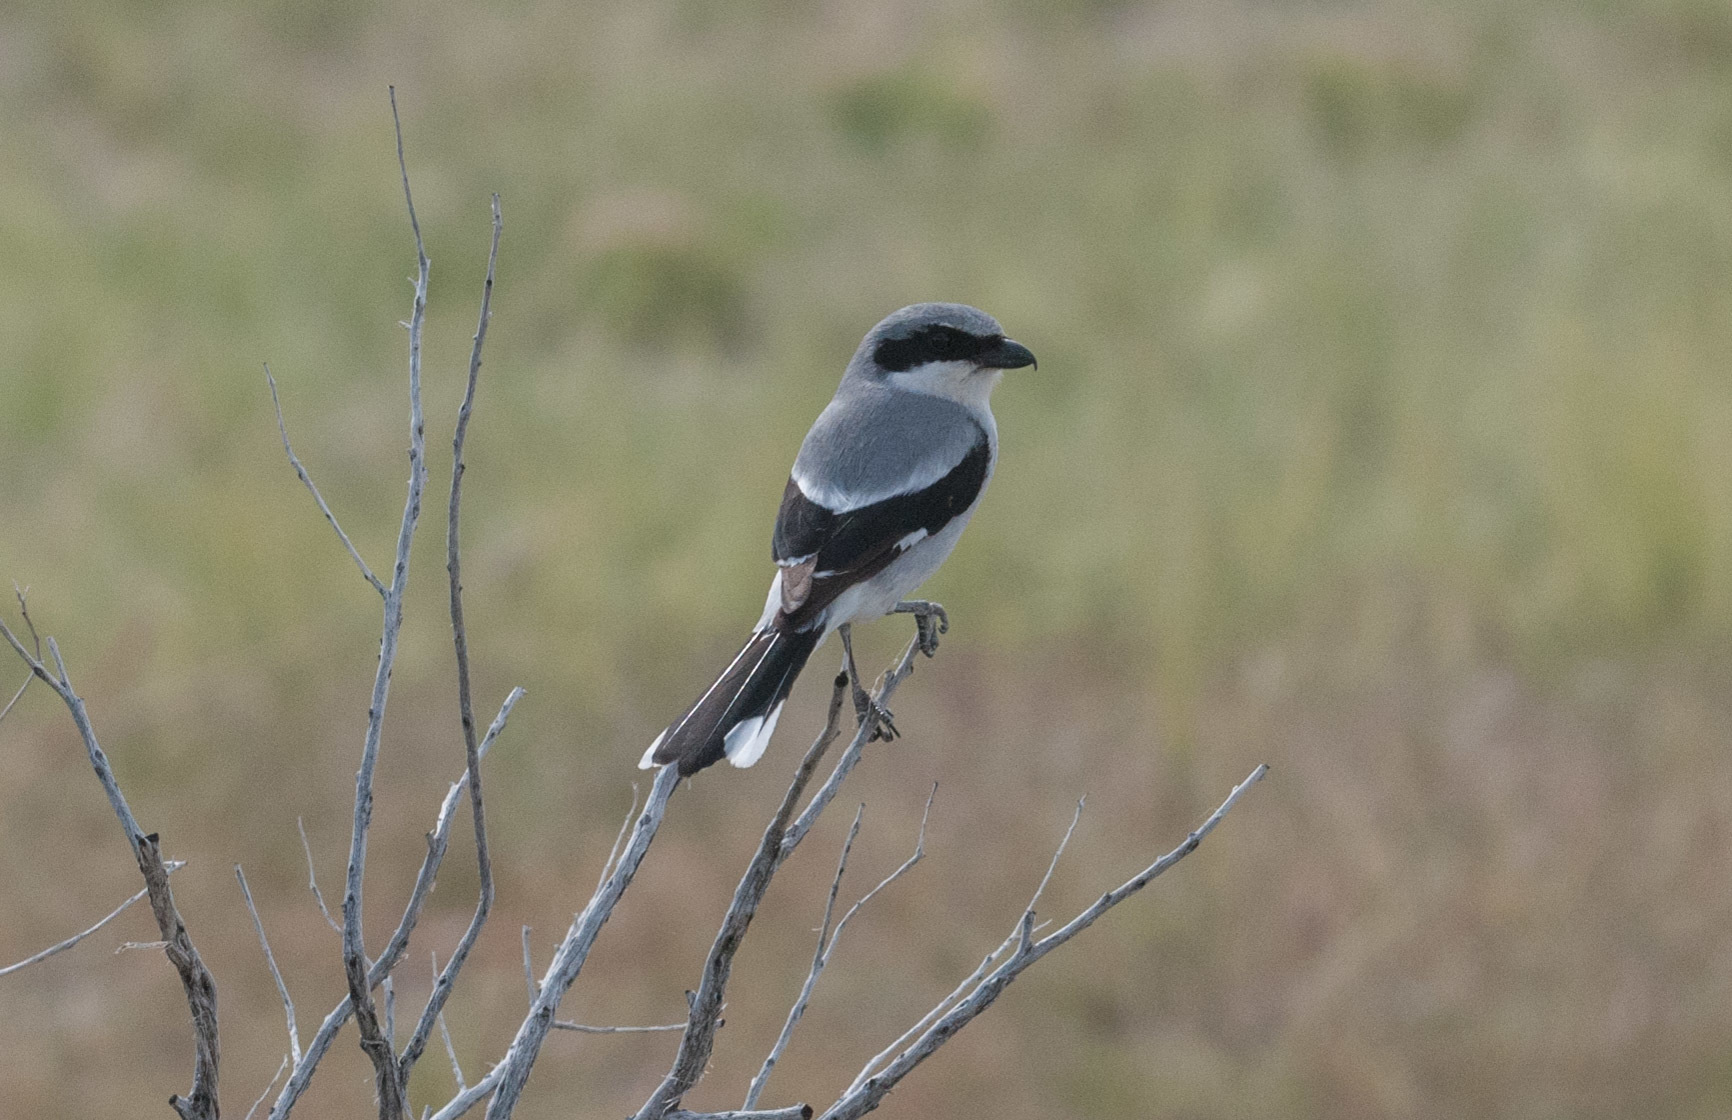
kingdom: Animalia
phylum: Chordata
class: Aves
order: Passeriformes
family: Laniidae
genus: Lanius
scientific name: Lanius ludovicianus
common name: Loggerhead shrike
